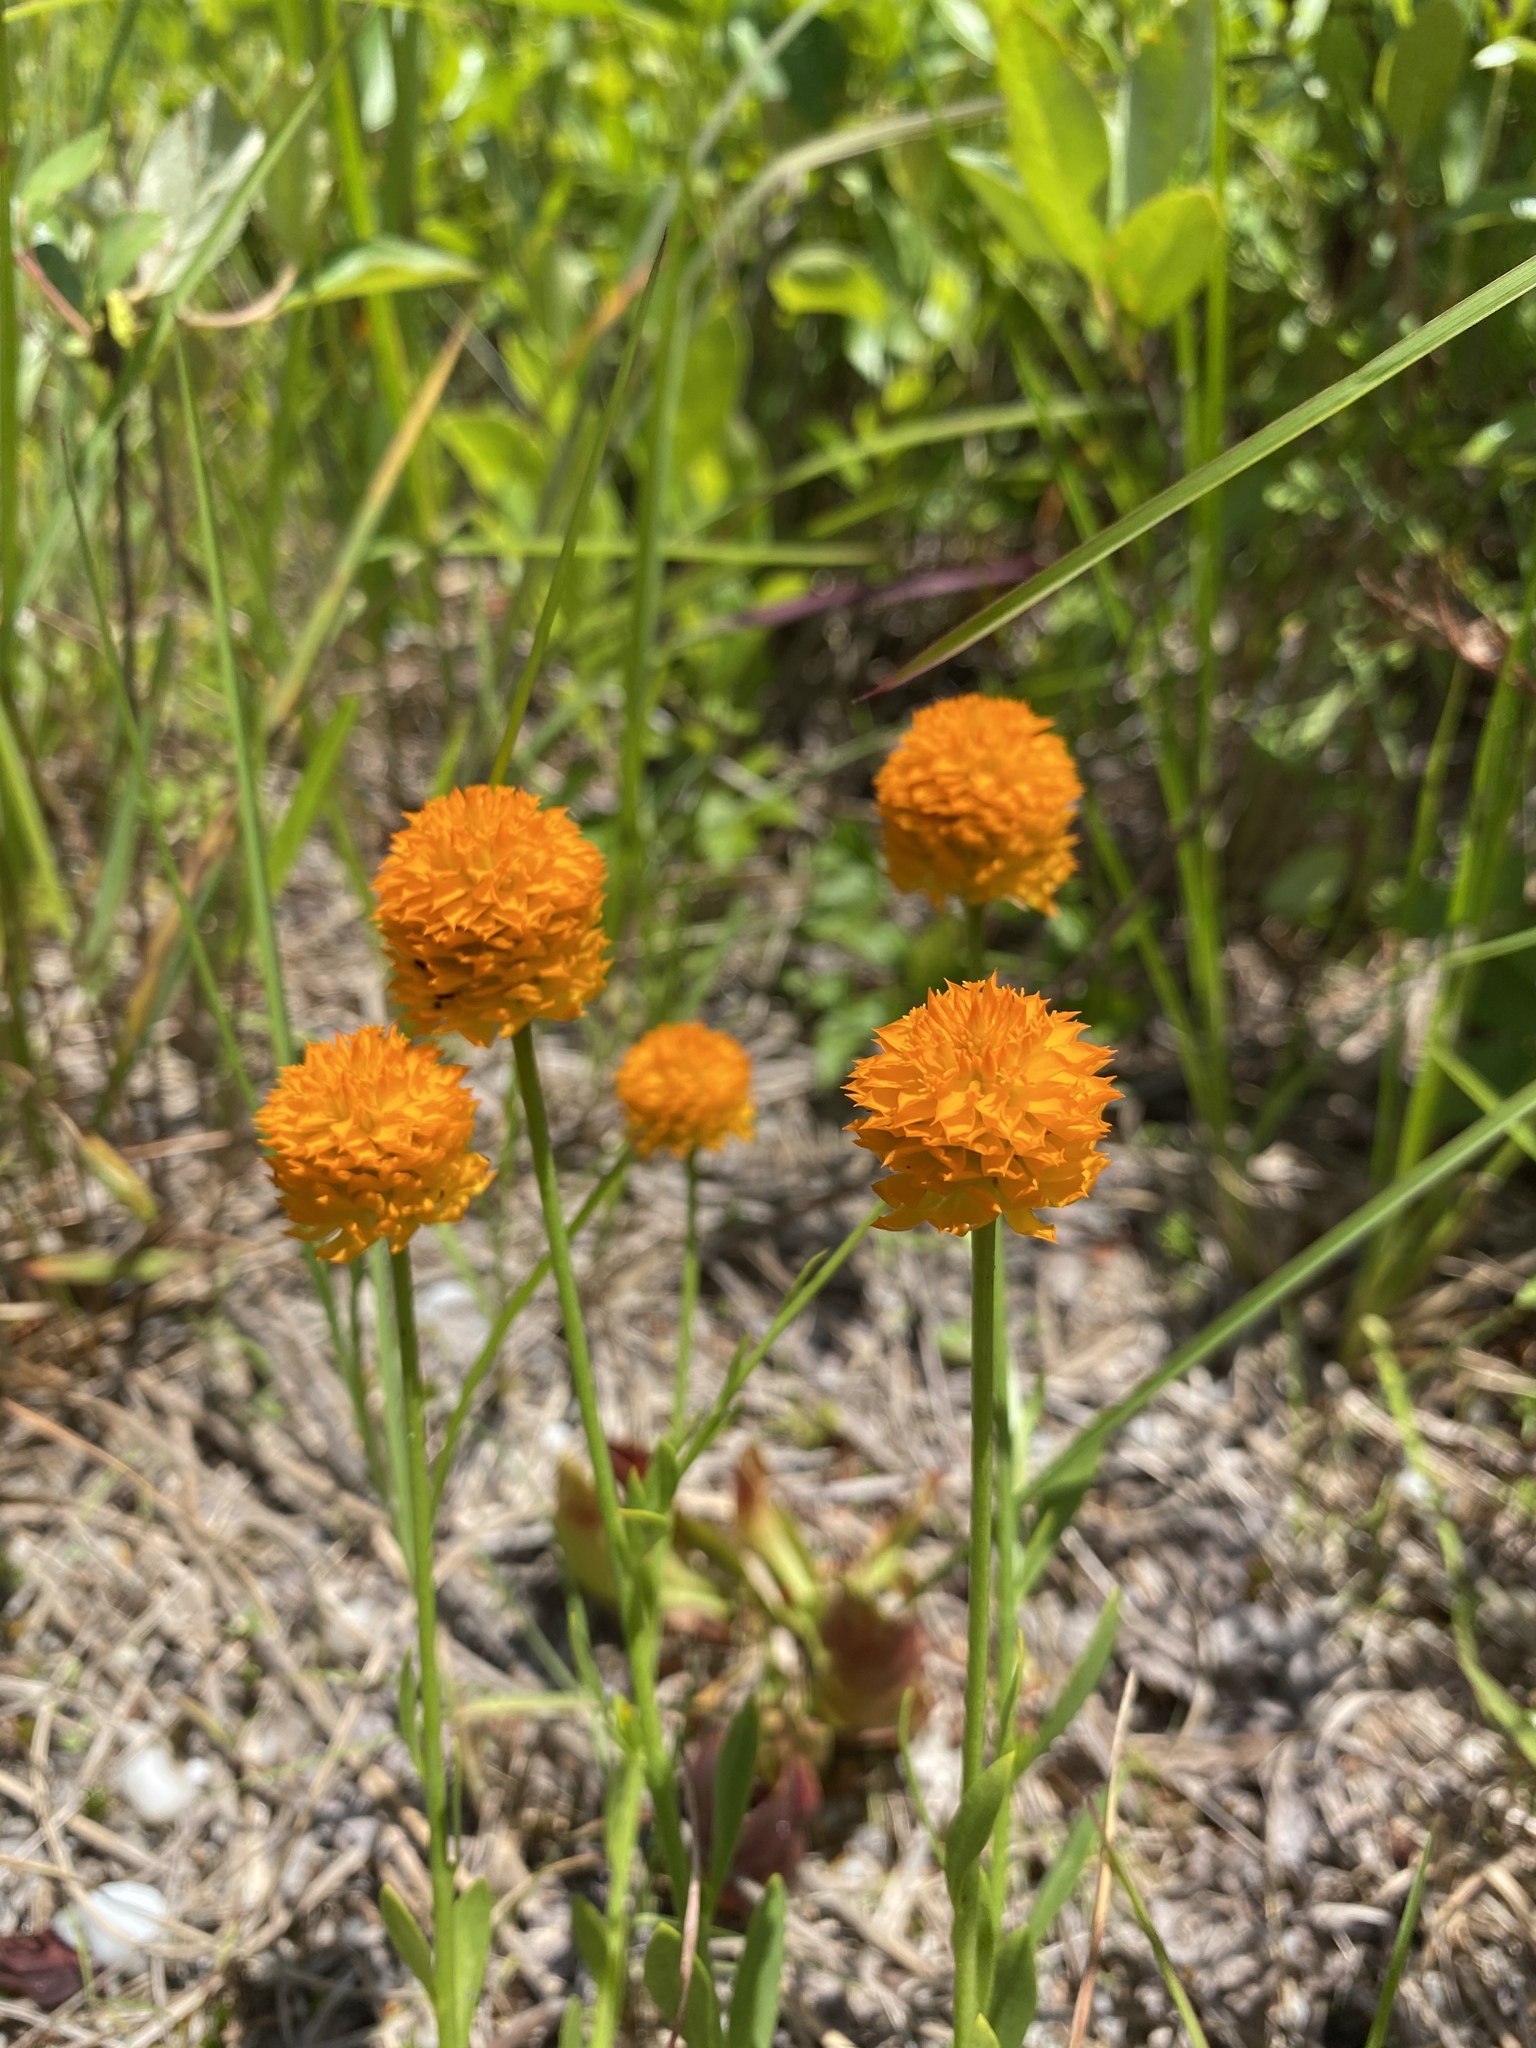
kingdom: Plantae
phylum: Tracheophyta
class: Magnoliopsida
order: Fabales
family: Polygalaceae
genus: Polygala
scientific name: Polygala lutea
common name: Orange milkwort
